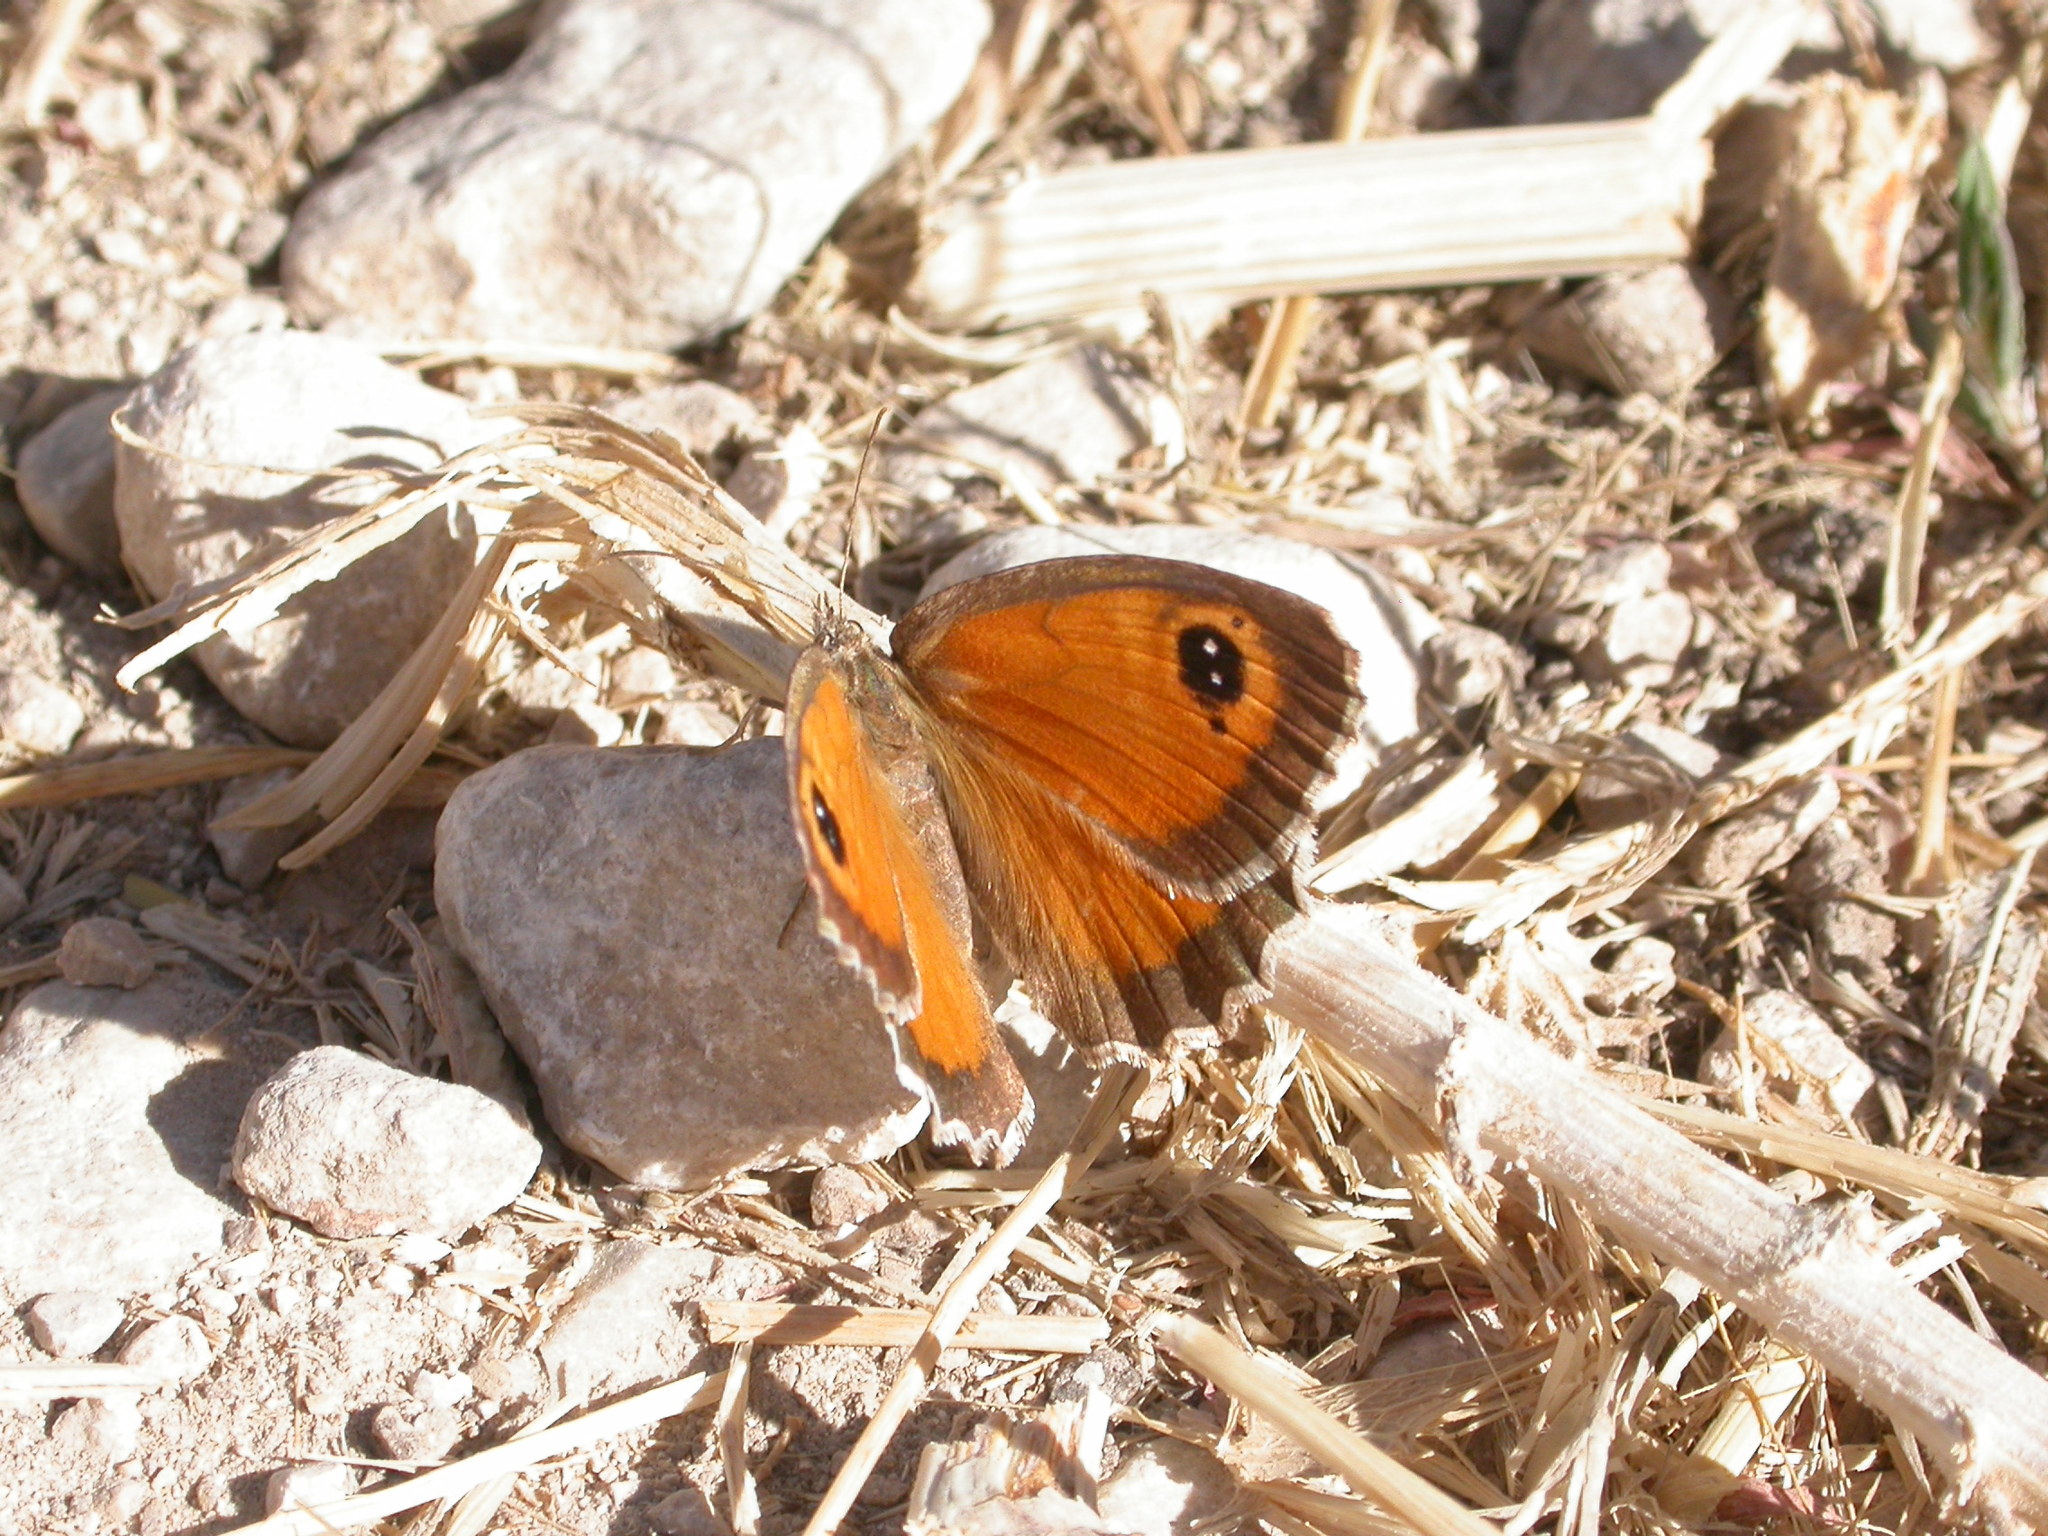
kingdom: Animalia
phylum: Arthropoda
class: Insecta
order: Lepidoptera
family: Nymphalidae
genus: Pyronia
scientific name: Pyronia cecilia
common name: Southern gatekeeper
